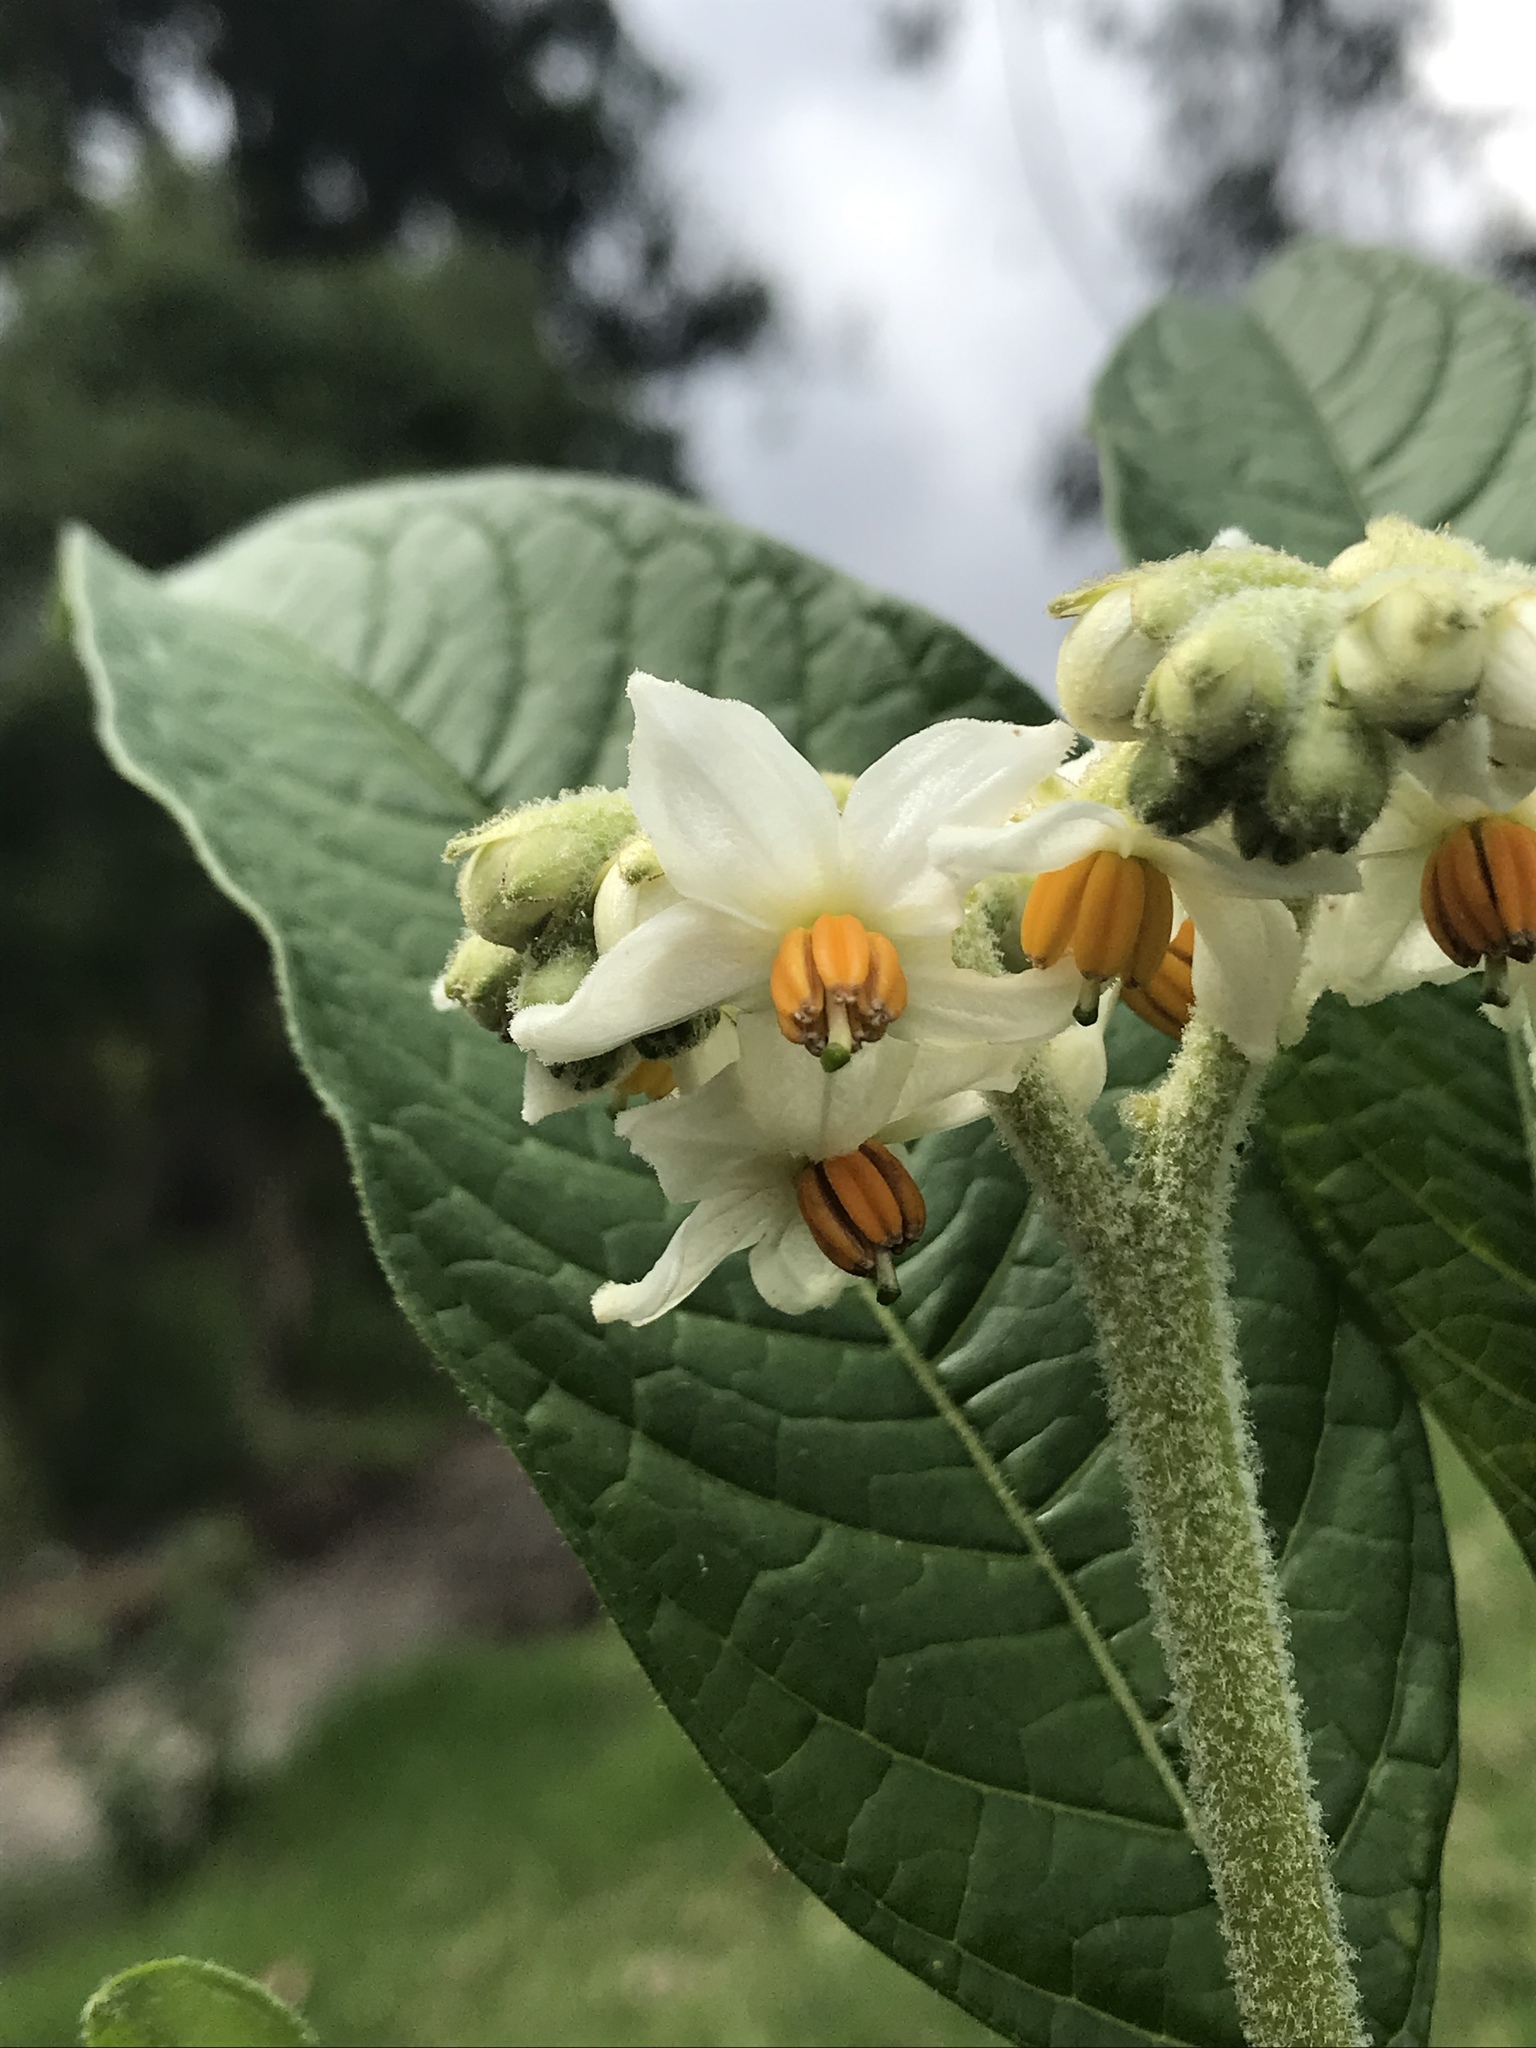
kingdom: Plantae
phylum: Tracheophyta
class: Magnoliopsida
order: Solanales
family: Solanaceae
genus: Solanum
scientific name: Solanum oblongifolium
